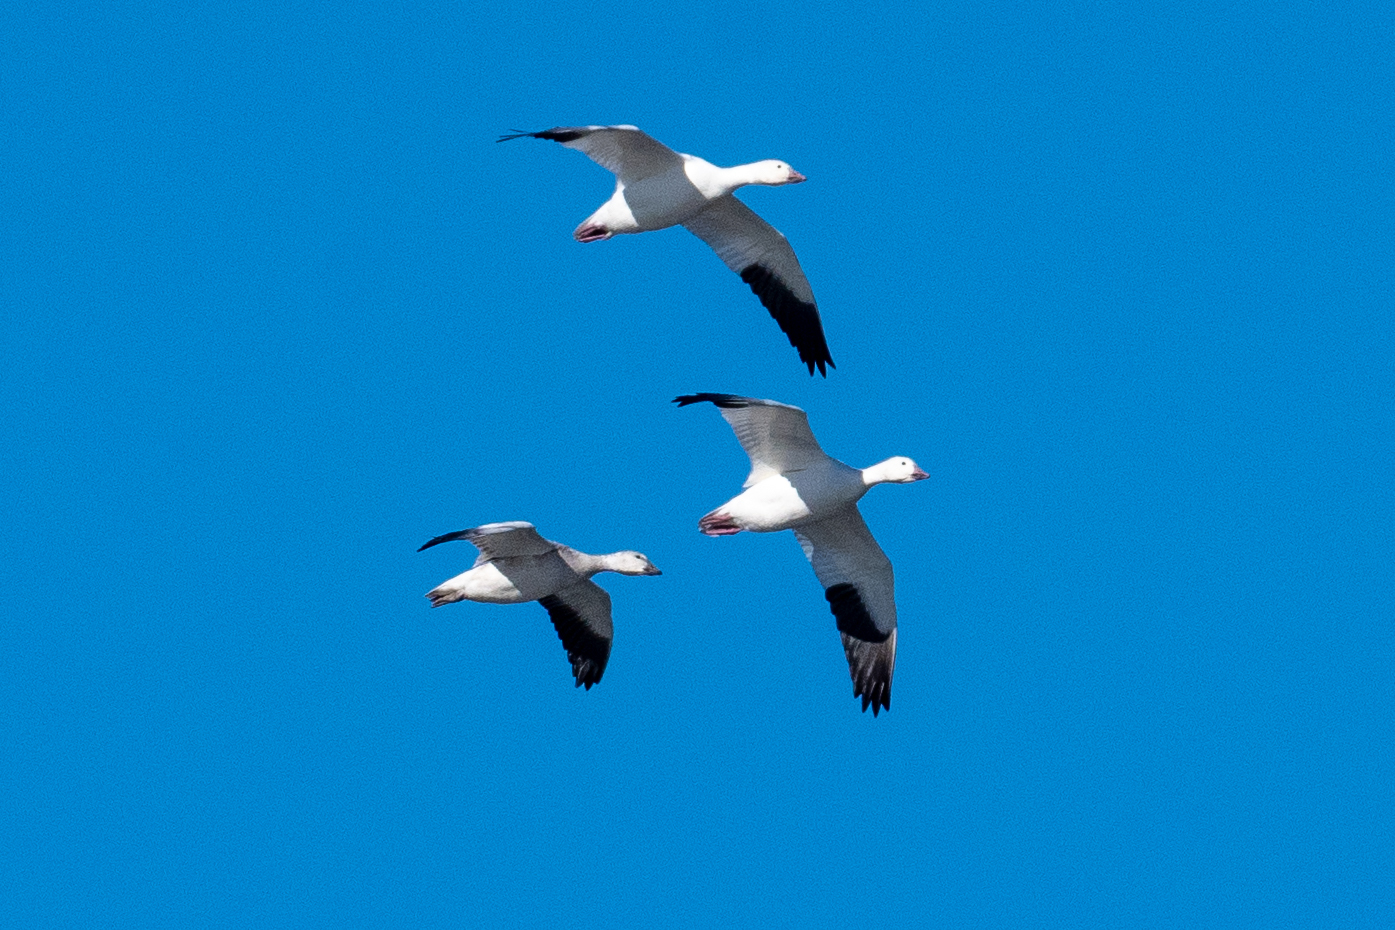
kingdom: Animalia
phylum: Chordata
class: Aves
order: Anseriformes
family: Anatidae
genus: Anser
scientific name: Anser caerulescens
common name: Snow goose
